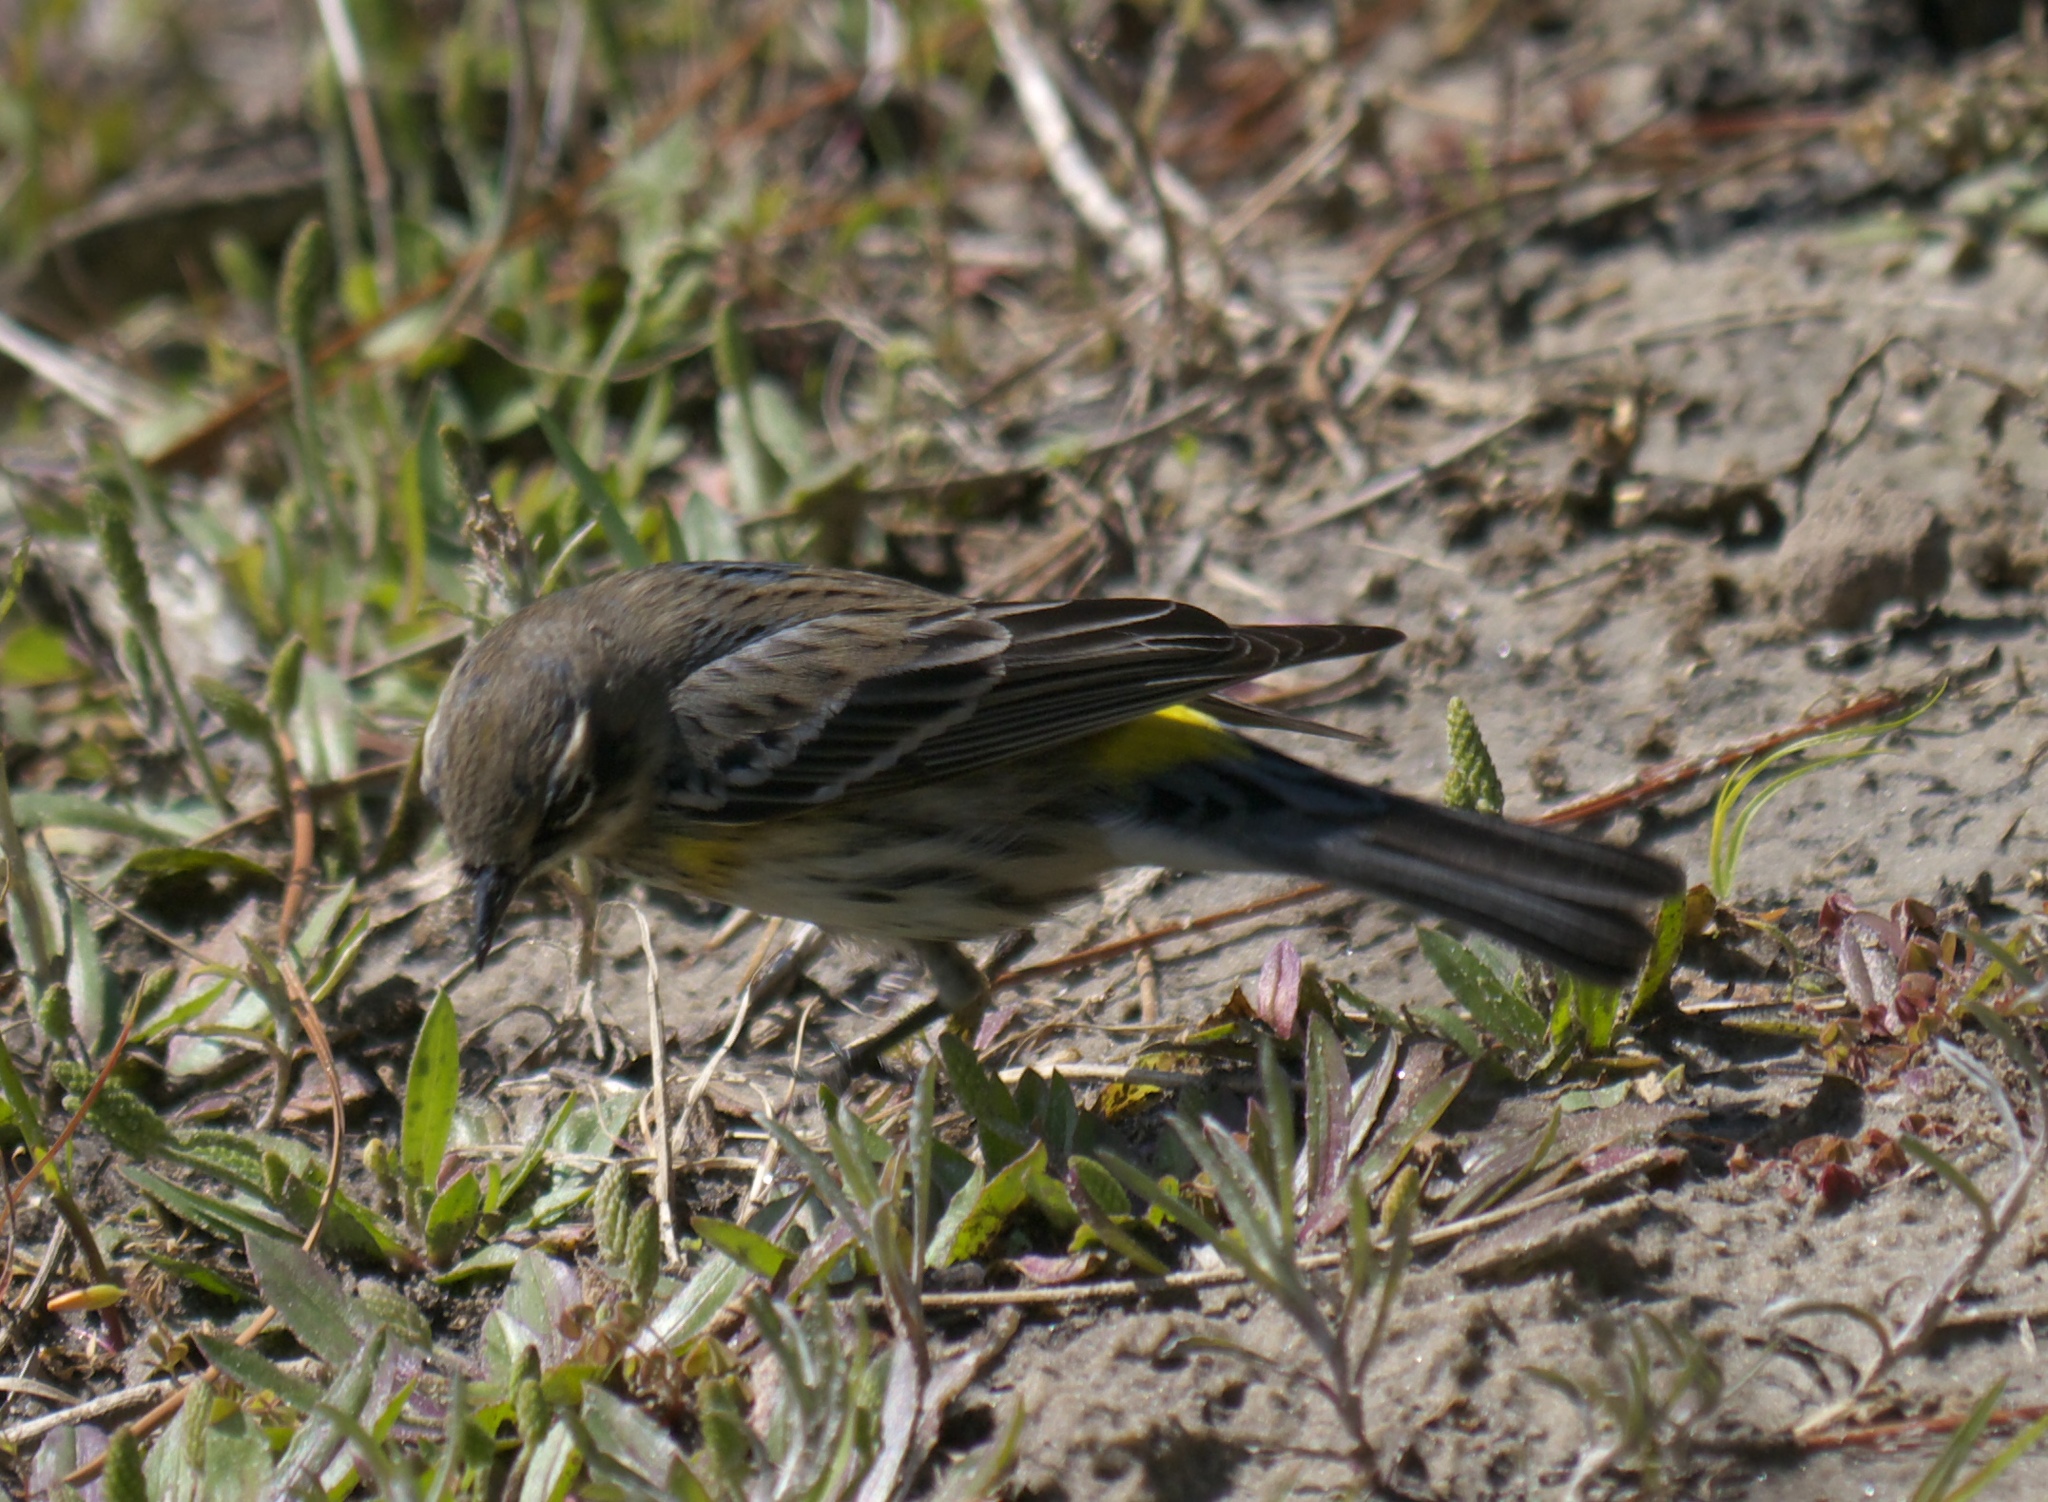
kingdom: Animalia
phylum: Chordata
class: Aves
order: Passeriformes
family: Parulidae
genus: Setophaga
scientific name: Setophaga coronata
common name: Myrtle warbler
